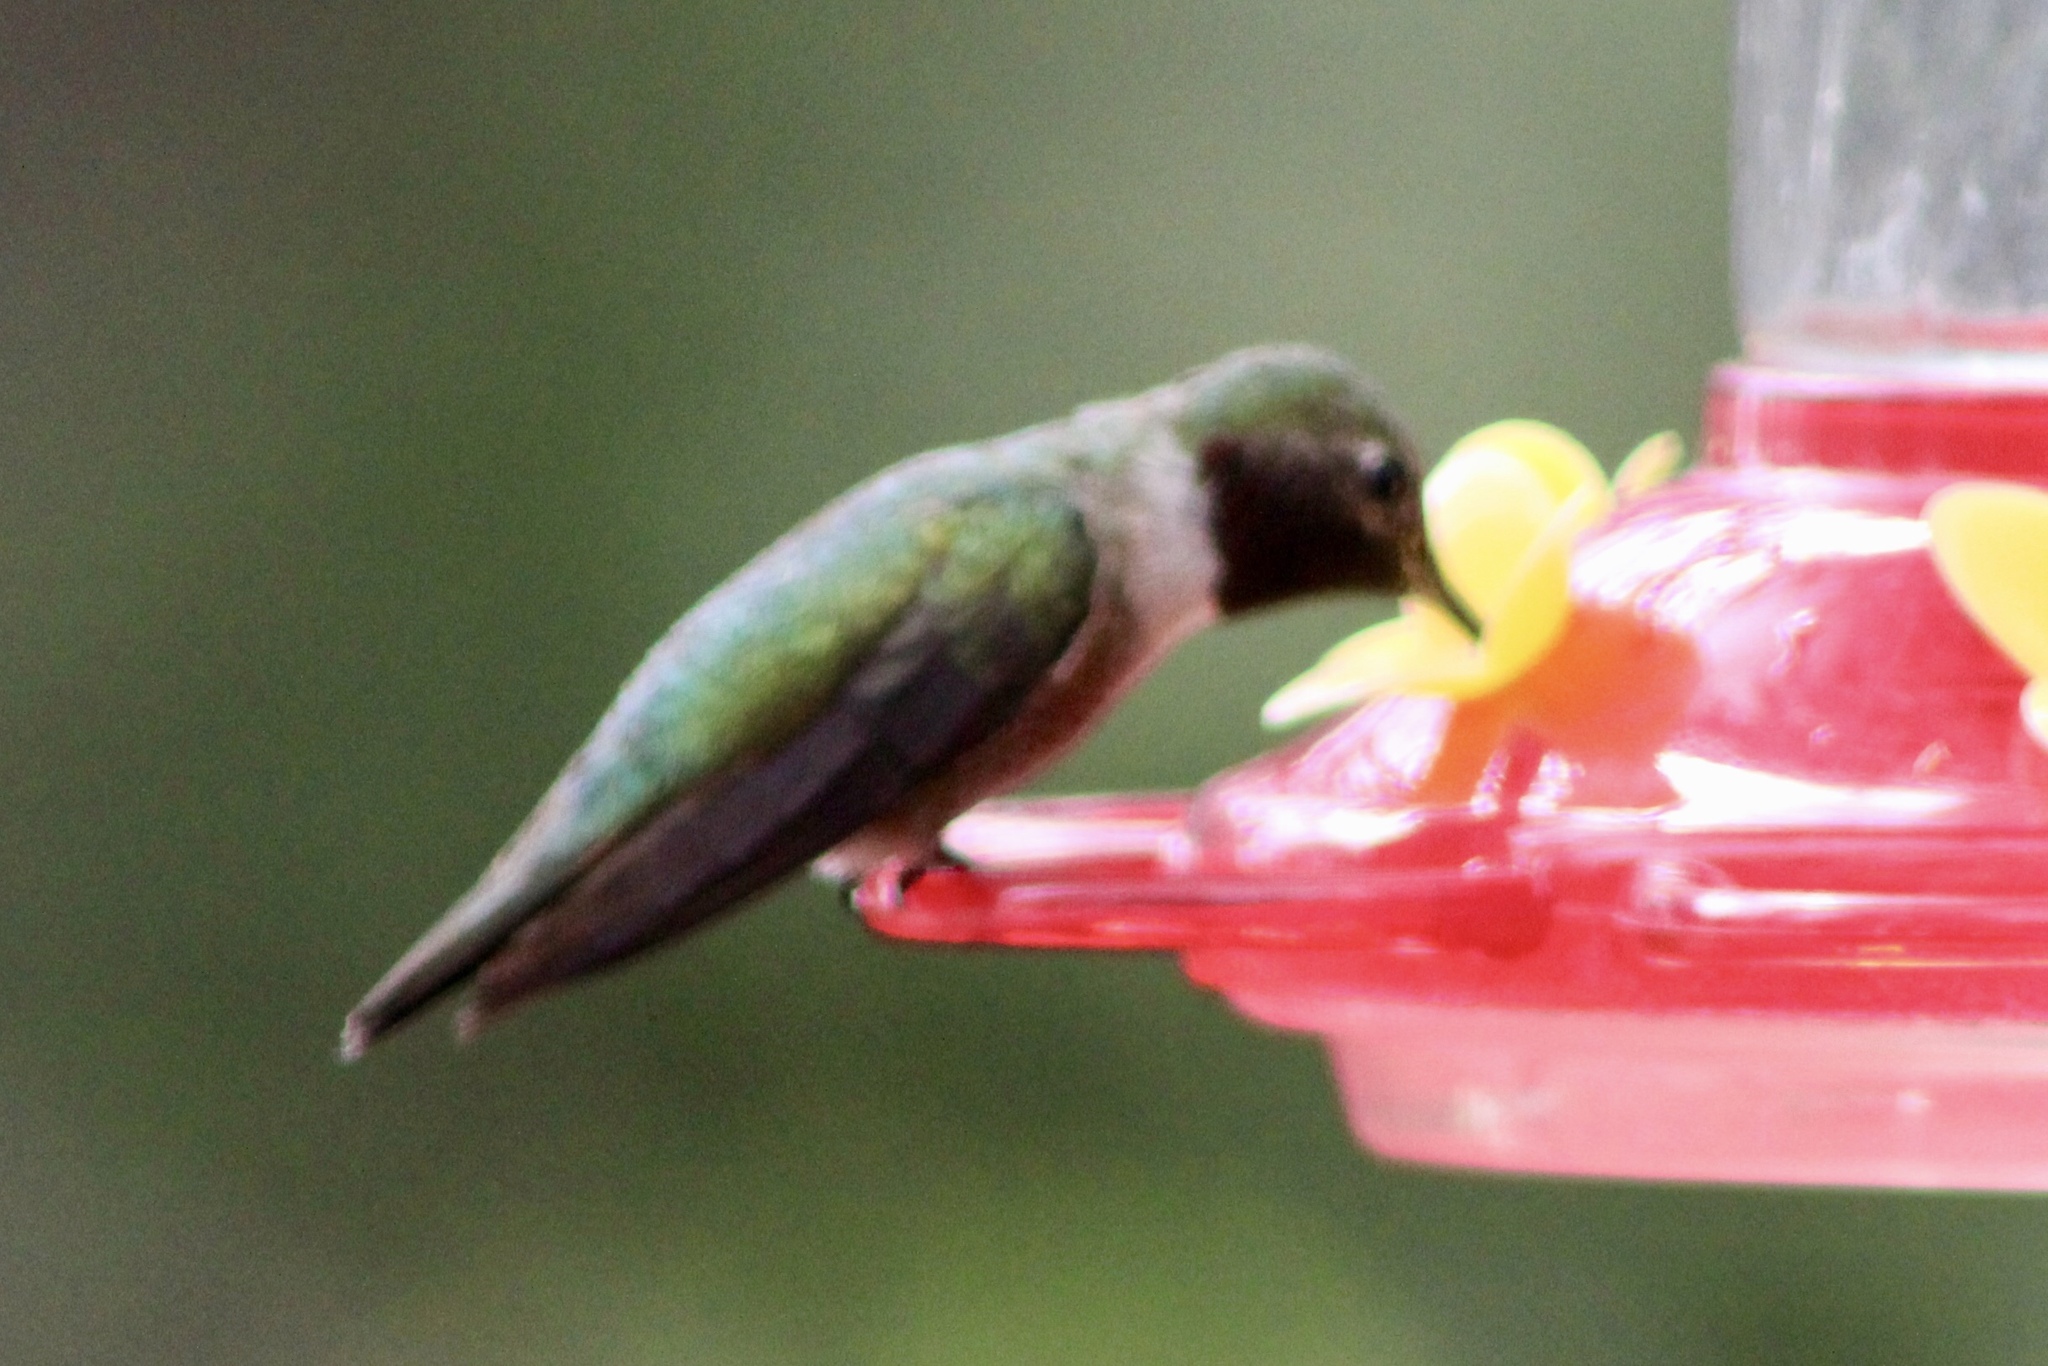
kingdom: Animalia
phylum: Chordata
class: Aves
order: Apodiformes
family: Trochilidae
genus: Selasphorus
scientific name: Selasphorus platycercus
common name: Broad-tailed hummingbird
